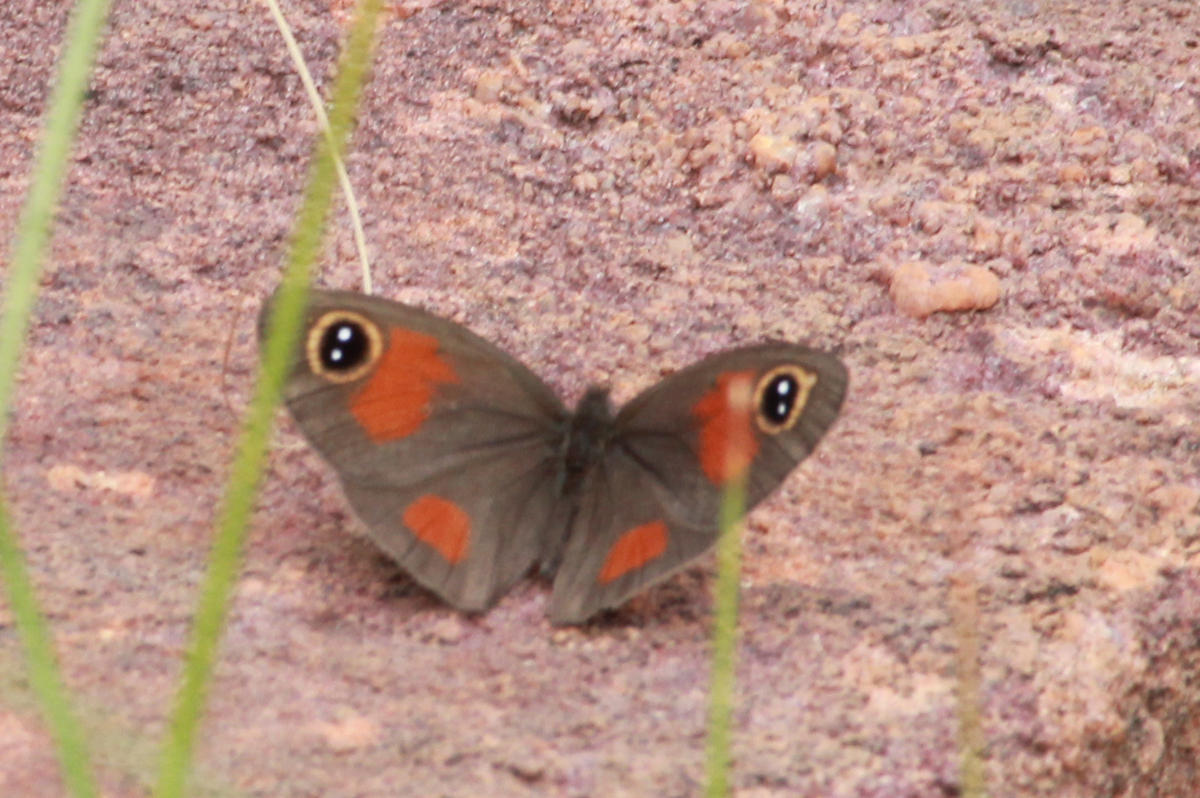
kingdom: Animalia
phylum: Arthropoda
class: Insecta
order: Lepidoptera
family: Nymphalidae
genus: Stygionympha
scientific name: Stygionympha wichgrafi
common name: Wichgraf’s hillside brown
